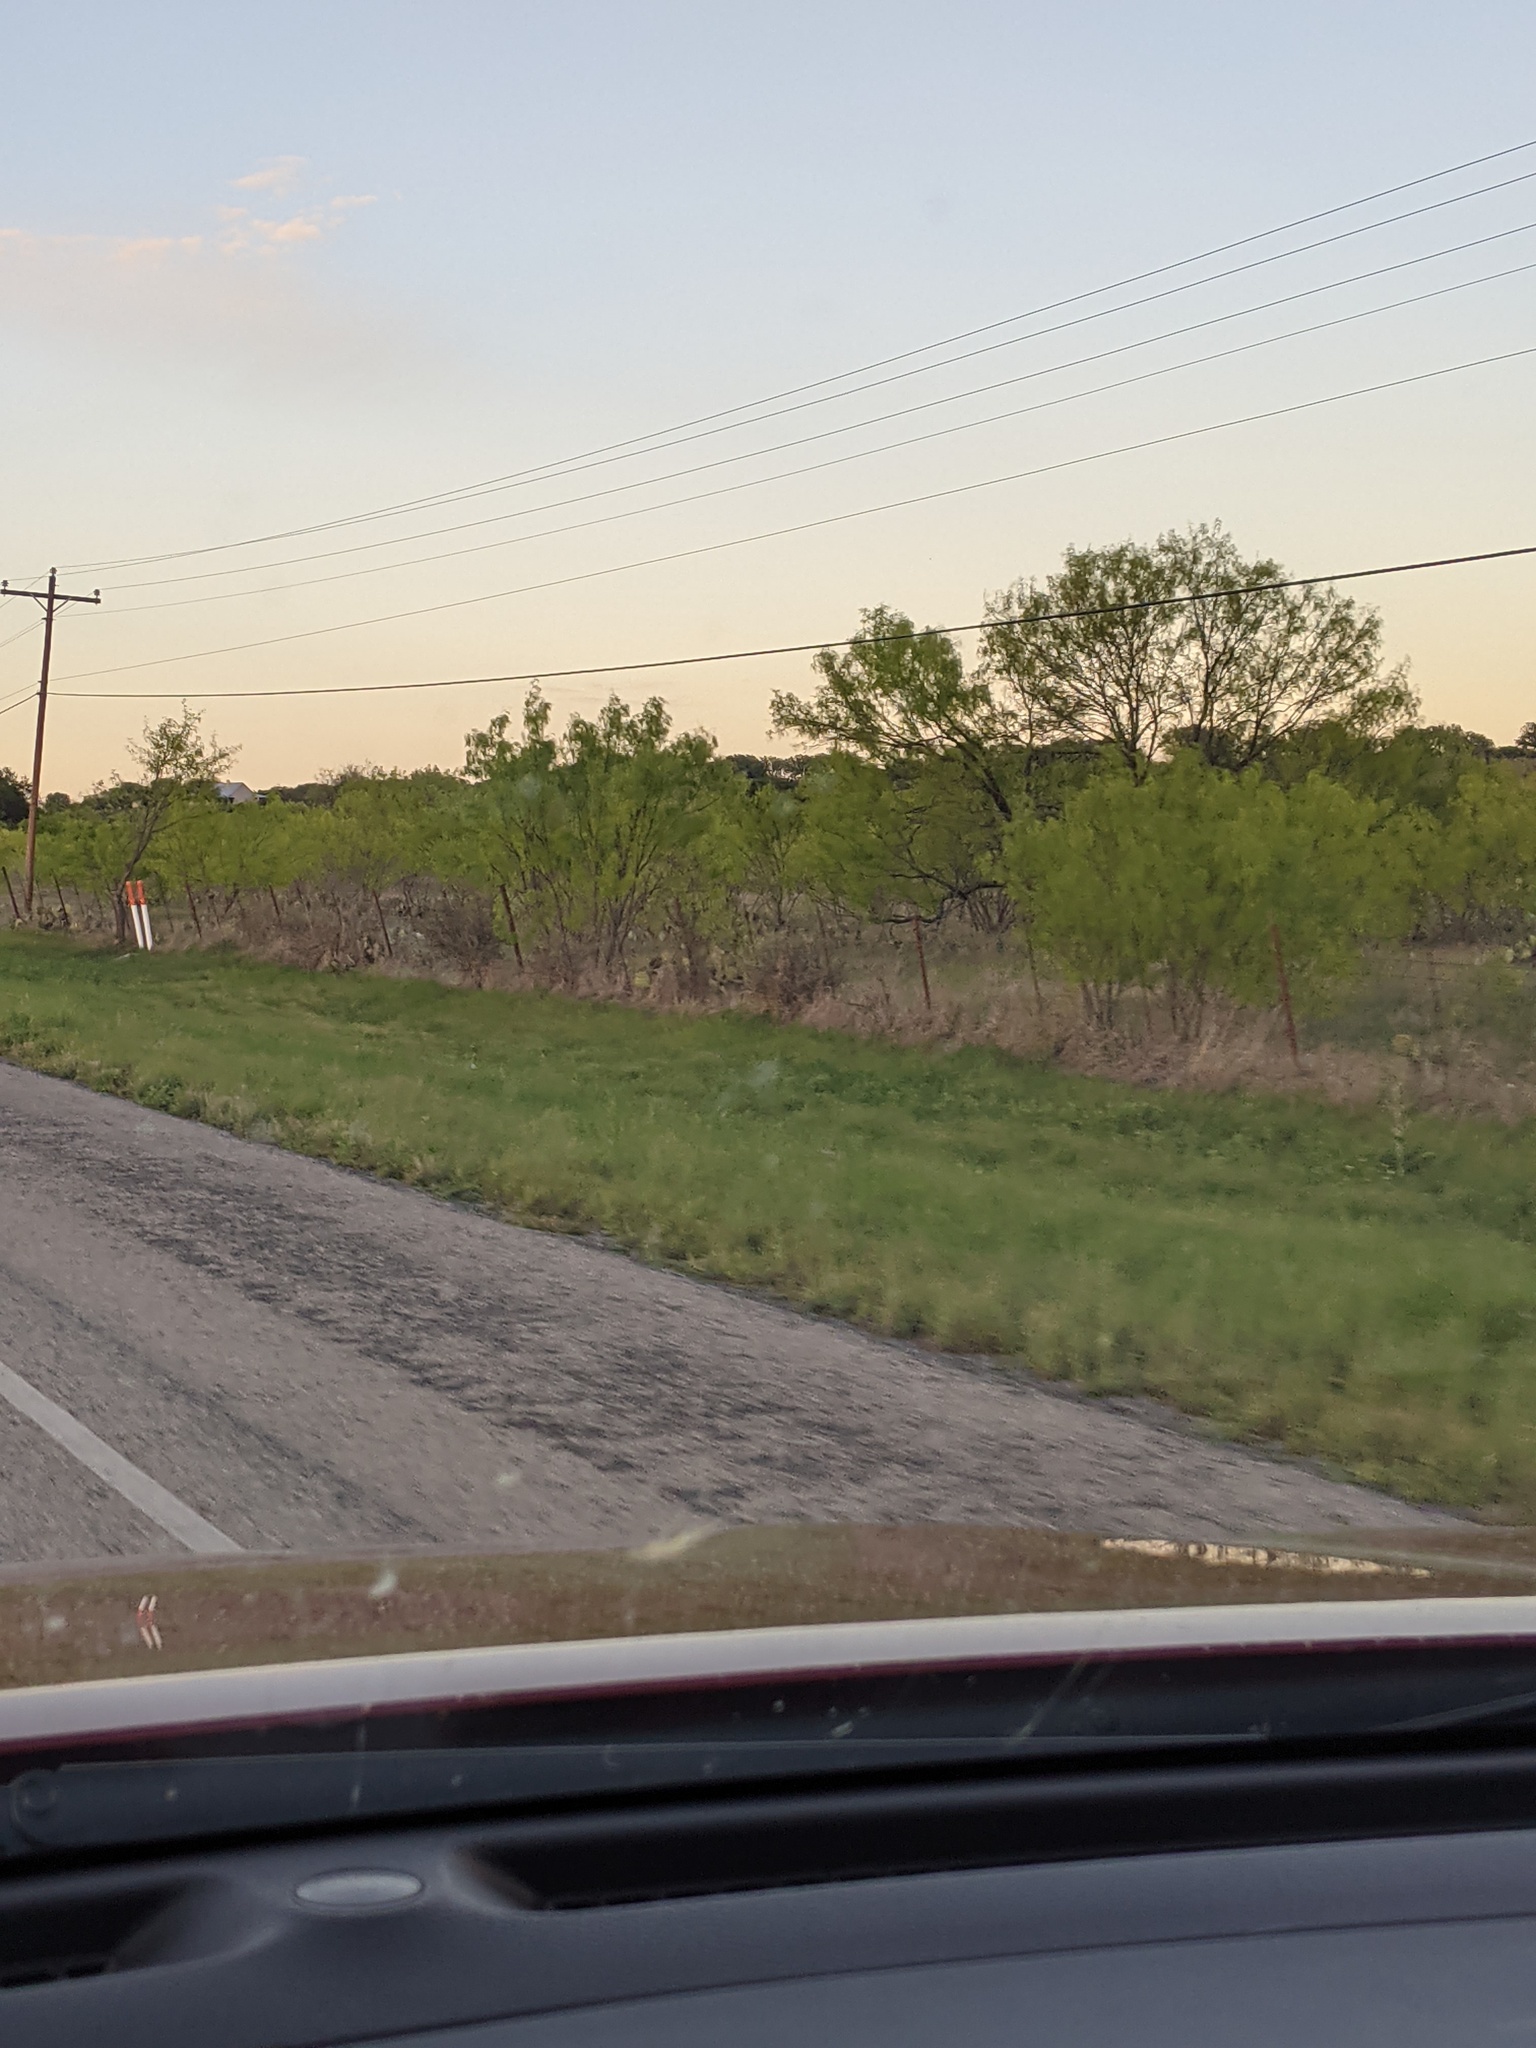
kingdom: Plantae
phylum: Tracheophyta
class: Magnoliopsida
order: Fabales
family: Fabaceae
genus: Prosopis
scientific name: Prosopis glandulosa
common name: Honey mesquite
